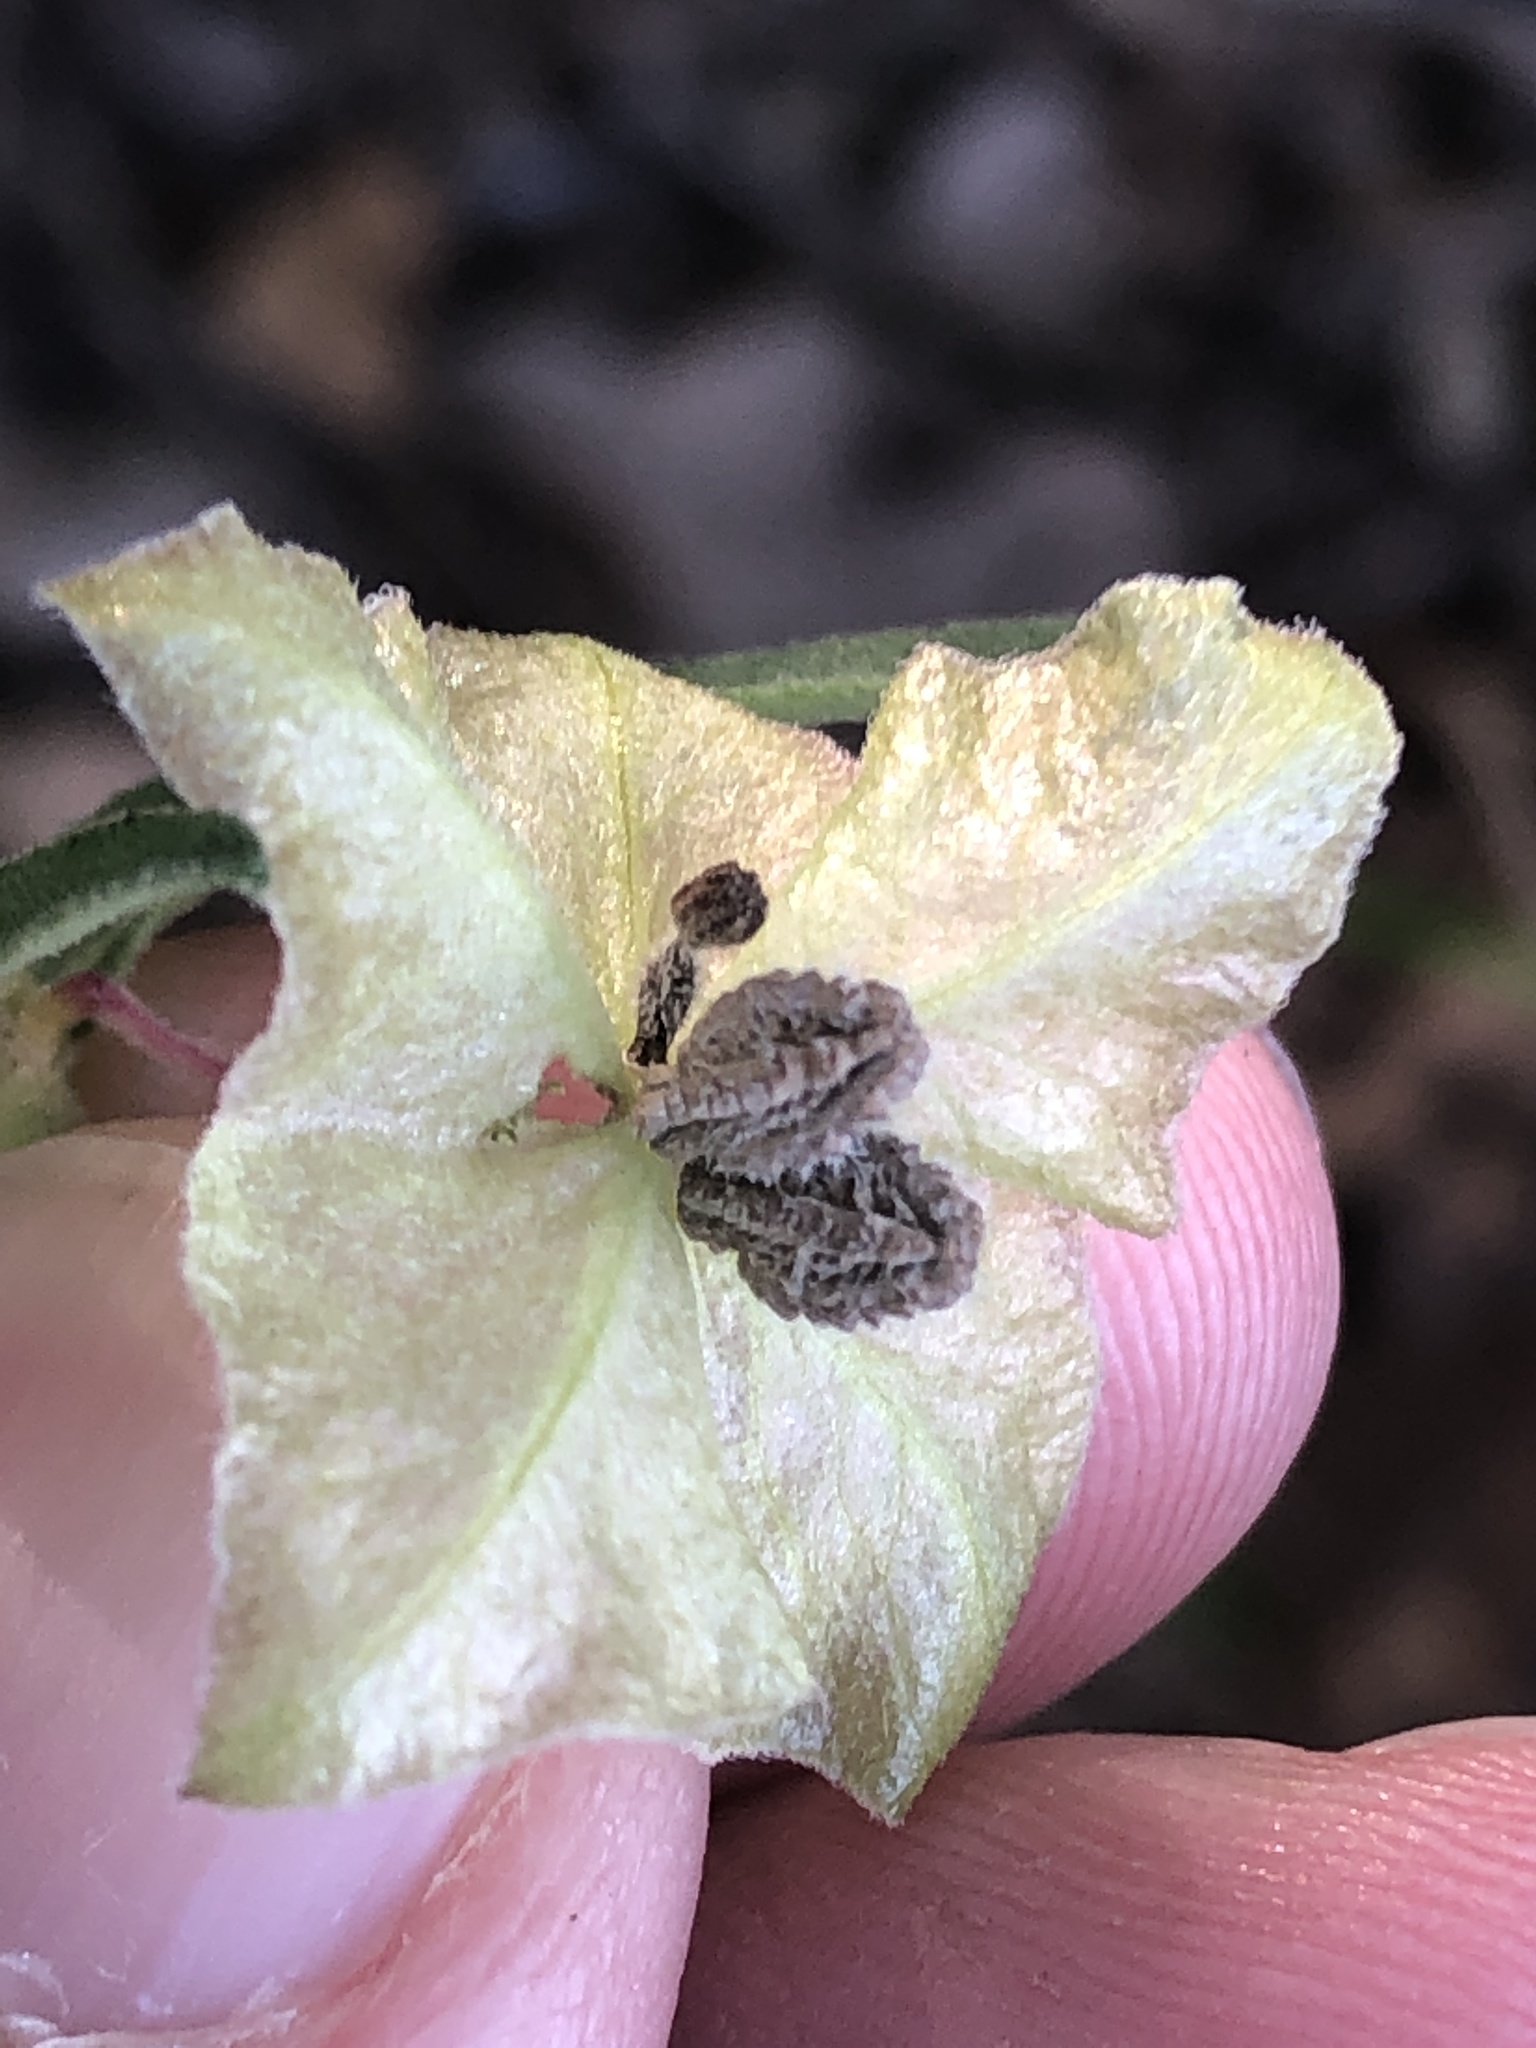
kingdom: Plantae
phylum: Tracheophyta
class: Magnoliopsida
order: Caryophyllales
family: Nyctaginaceae
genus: Mirabilis
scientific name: Mirabilis albida
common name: Hairy four-o'clock
